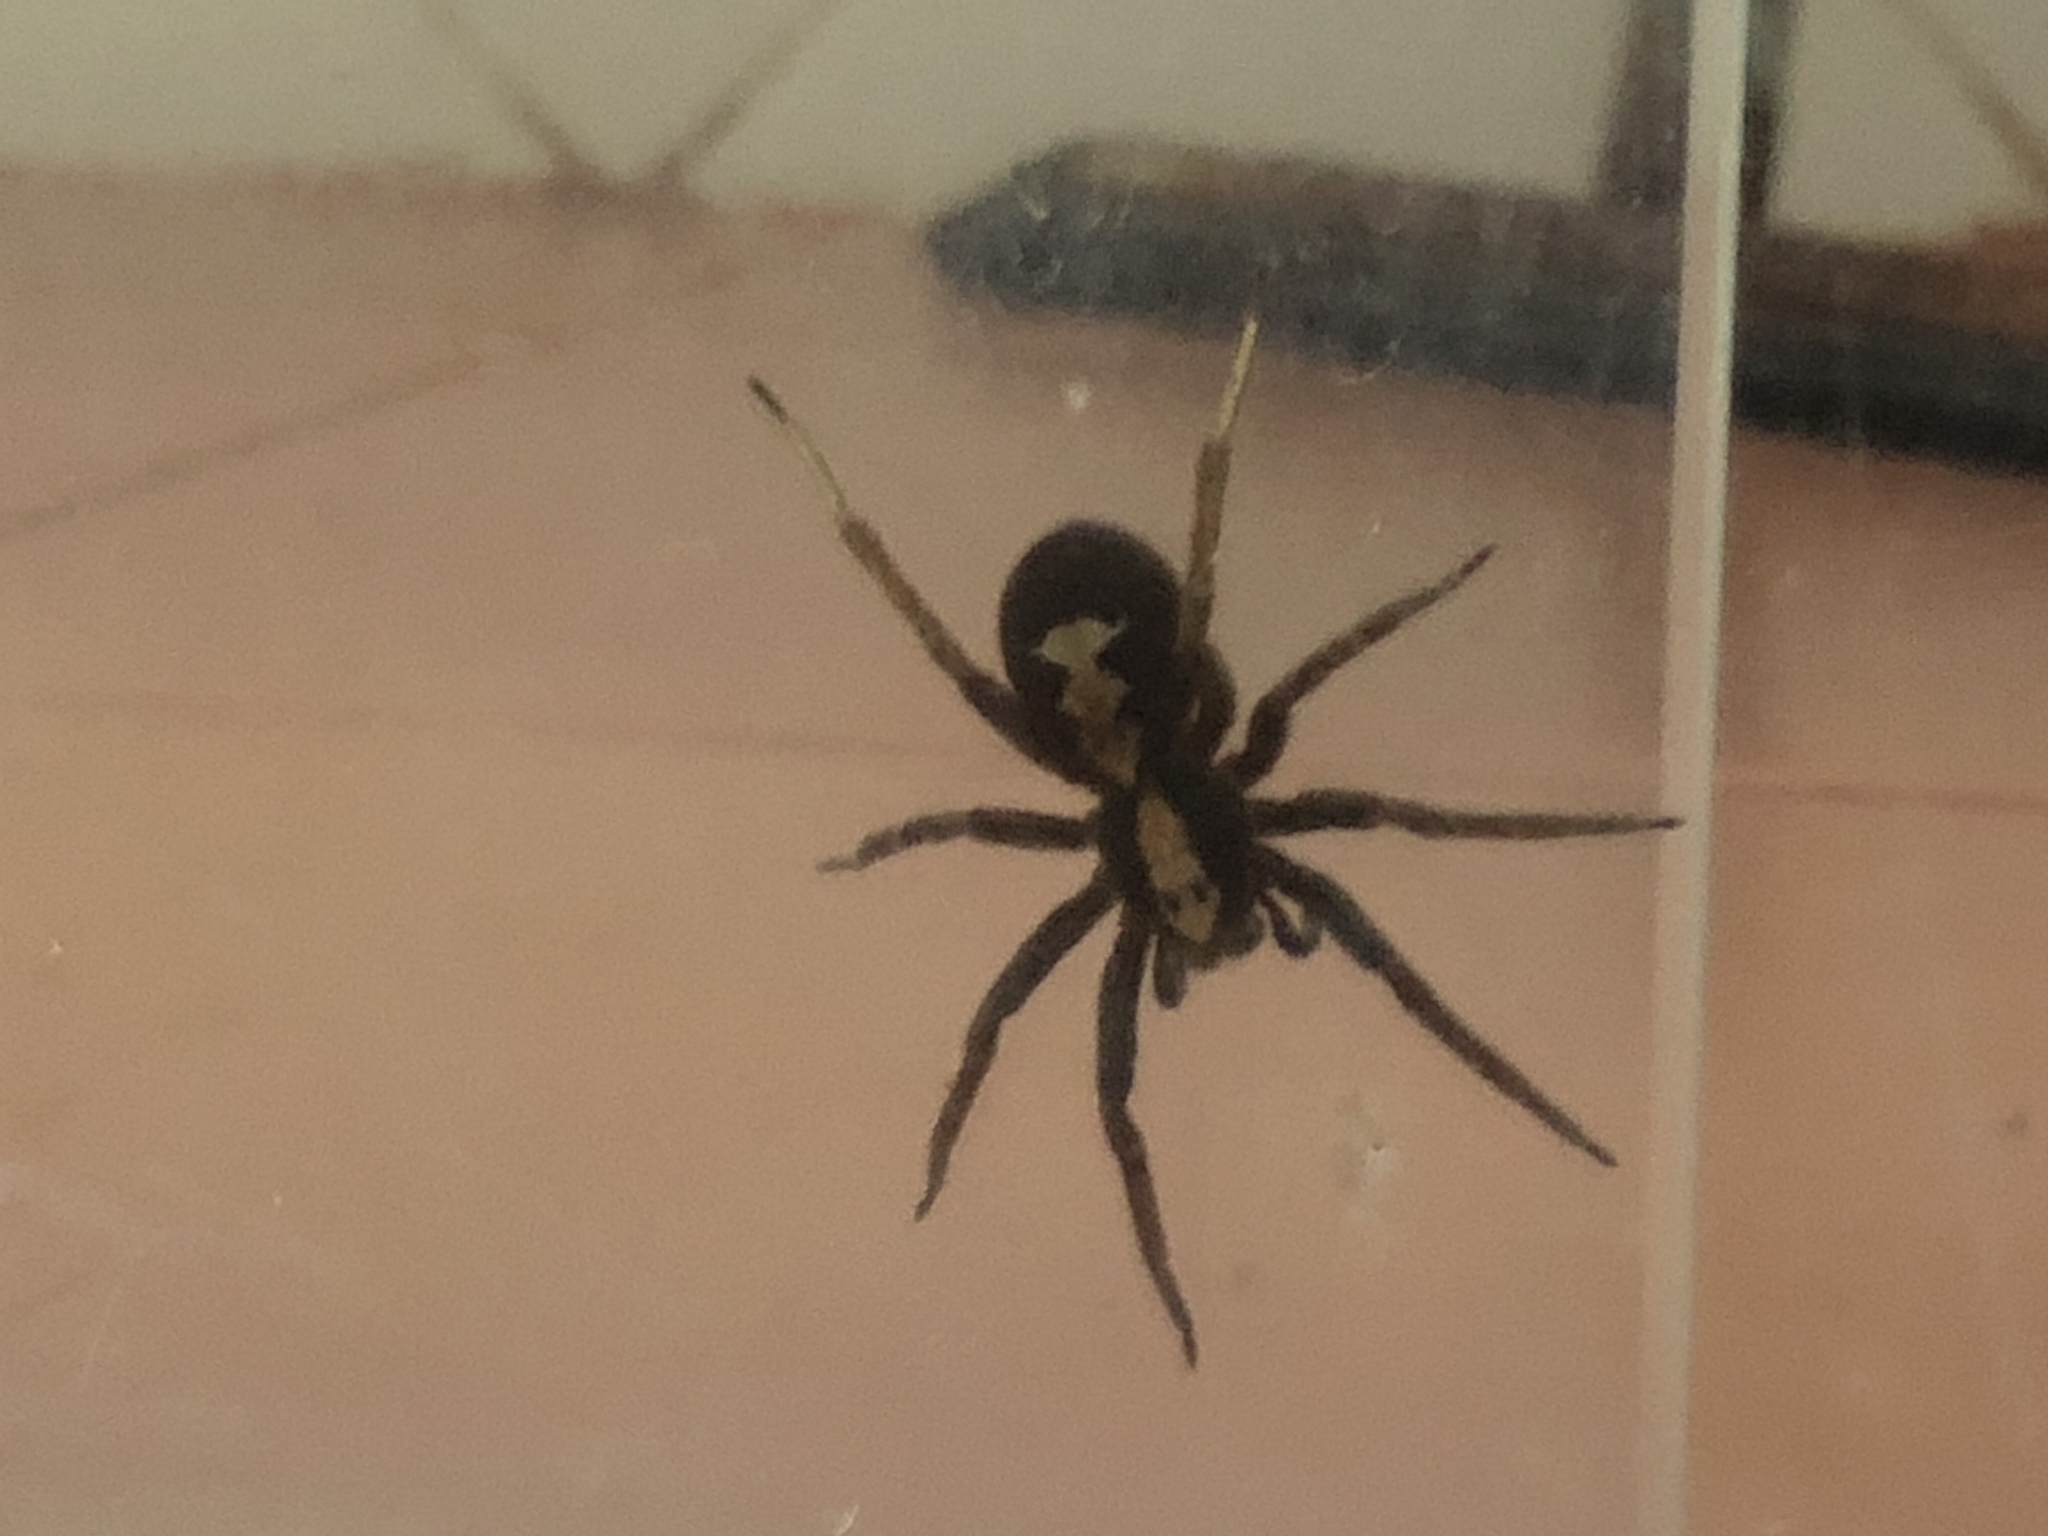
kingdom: Animalia
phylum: Arthropoda
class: Arachnida
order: Araneae
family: Ctenidae
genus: Ctenus
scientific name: Ctenus ornatus
